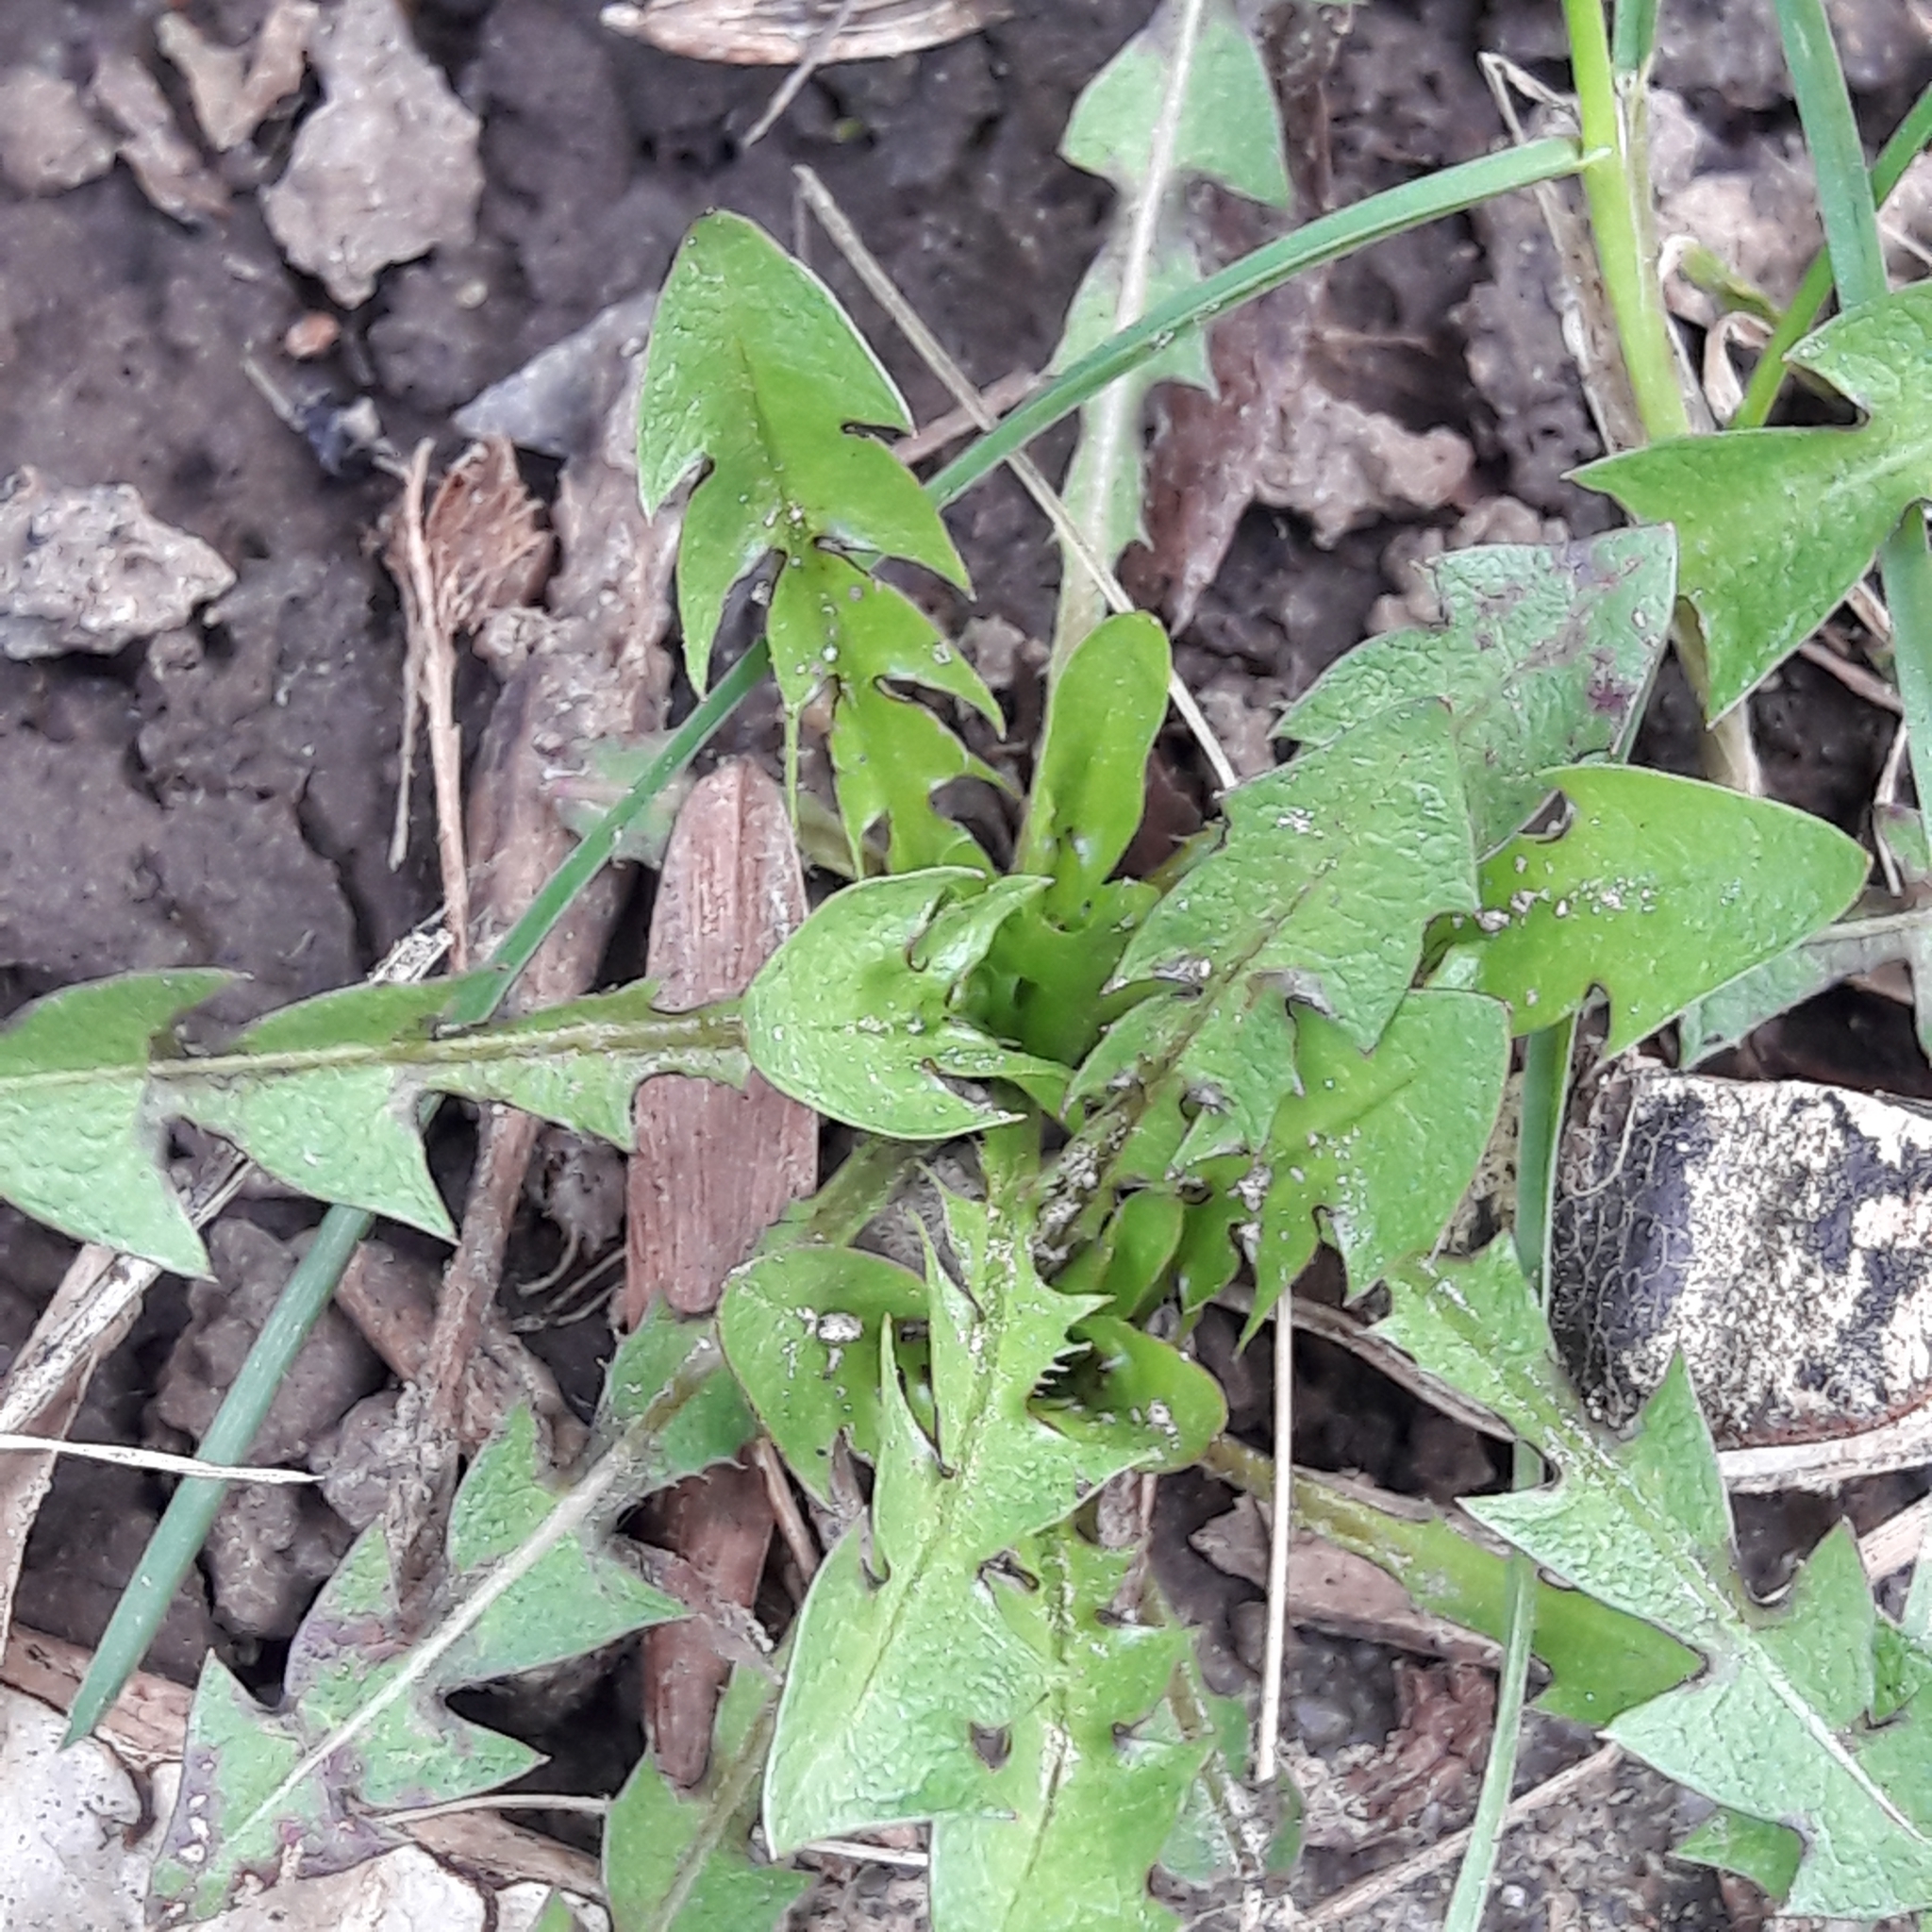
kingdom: Plantae
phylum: Tracheophyta
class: Magnoliopsida
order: Asterales
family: Asteraceae
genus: Taraxacum
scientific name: Taraxacum officinale
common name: Common dandelion
